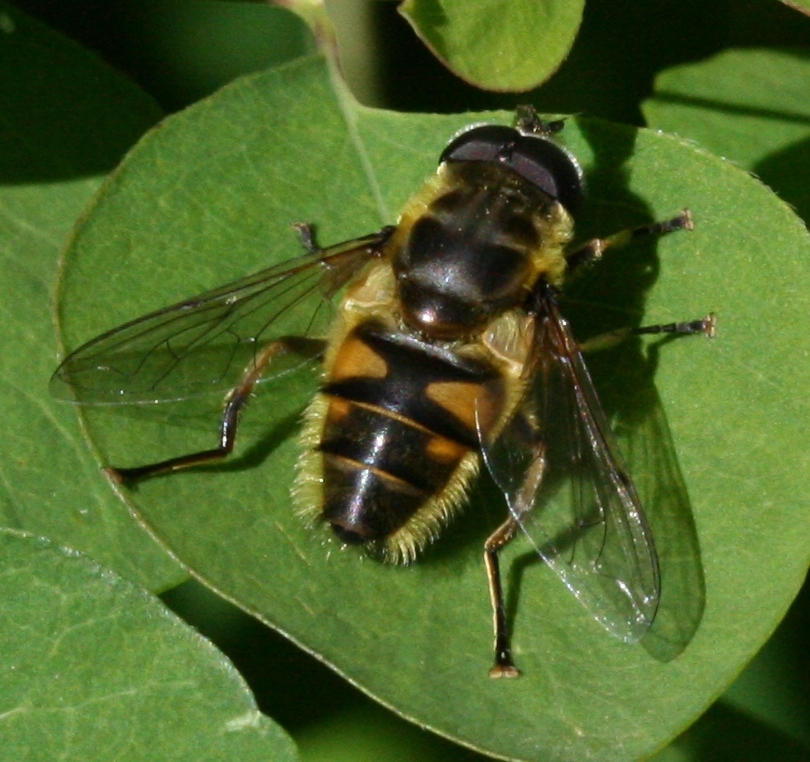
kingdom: Animalia
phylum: Arthropoda
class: Insecta
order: Diptera
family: Syrphidae
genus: Myathropa
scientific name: Myathropa florea
